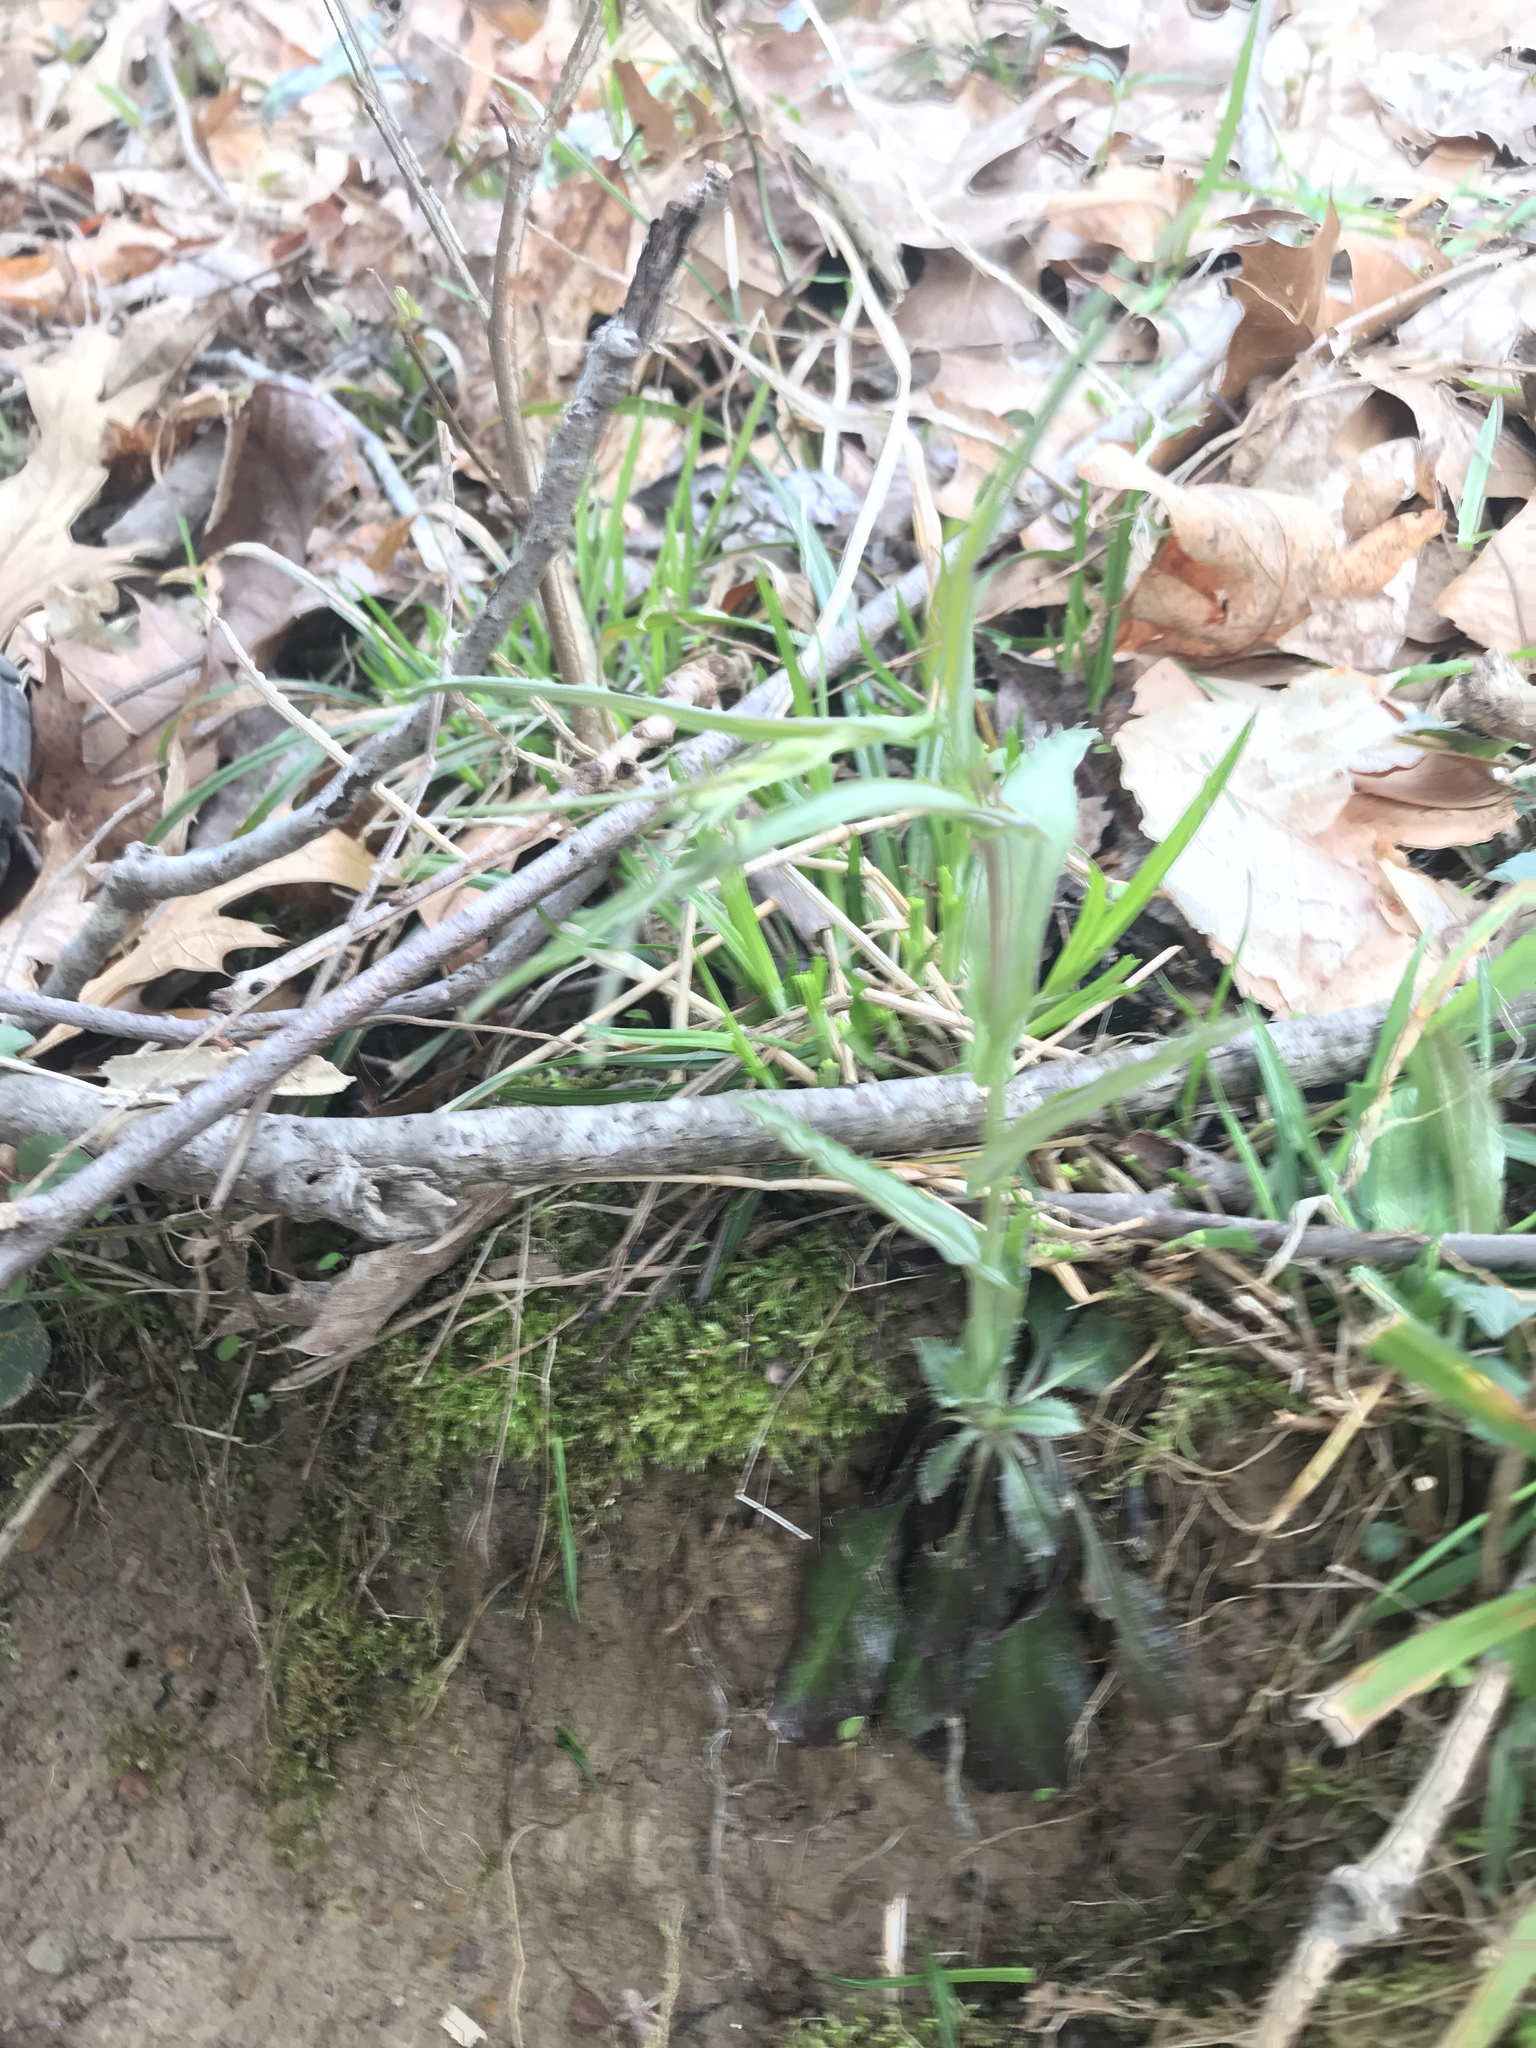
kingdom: Plantae
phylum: Tracheophyta
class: Magnoliopsida
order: Brassicales
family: Brassicaceae
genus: Borodinia
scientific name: Borodinia laevigata
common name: Smooth rockcress
